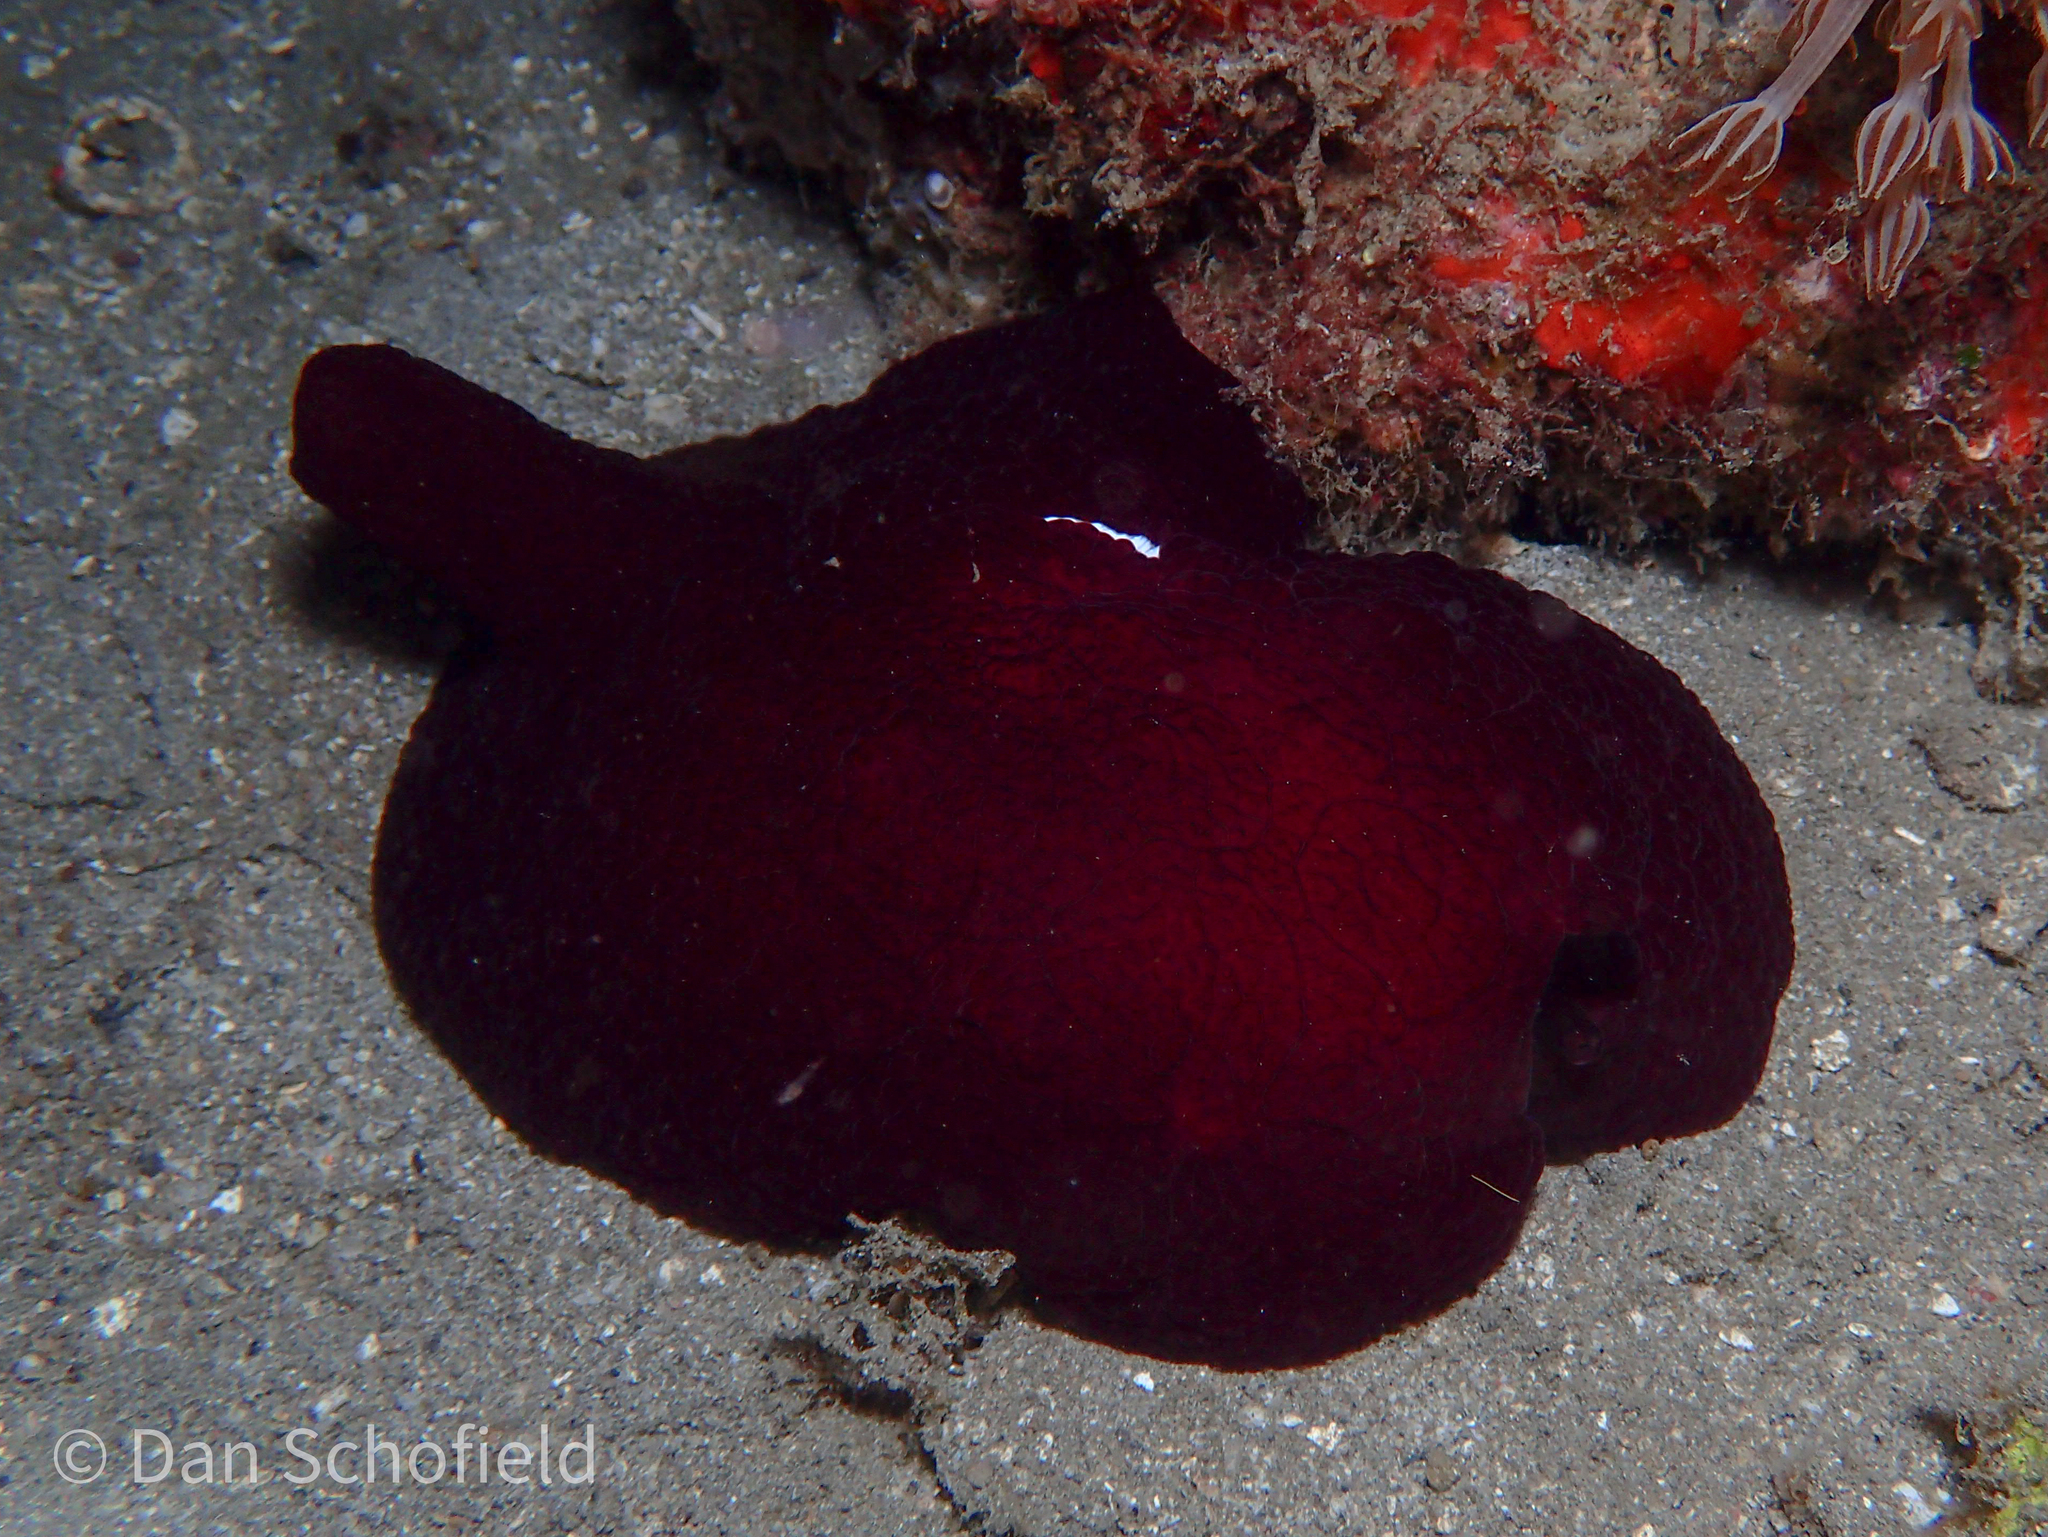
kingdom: Animalia
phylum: Mollusca
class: Gastropoda
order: Pleurobranchida
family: Pleurobranchidae
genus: Pleurobranchus
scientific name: Pleurobranchus forskalii
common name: Forskal's side-gilled sea slug
